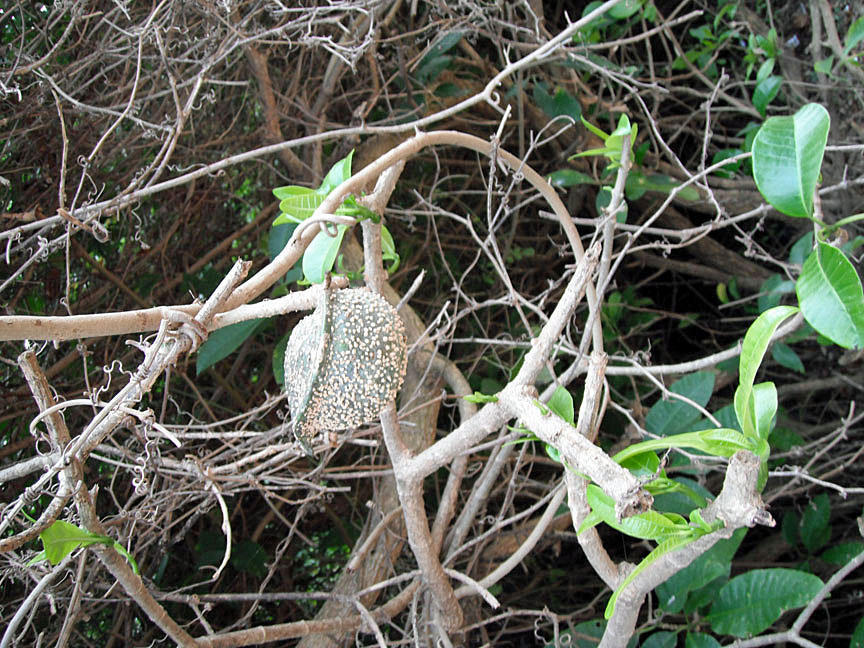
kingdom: Plantae
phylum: Tracheophyta
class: Magnoliopsida
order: Gentianales
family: Apocynaceae
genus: Tabernaemontana
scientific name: Tabernaemontana elegans
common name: Toadtree
